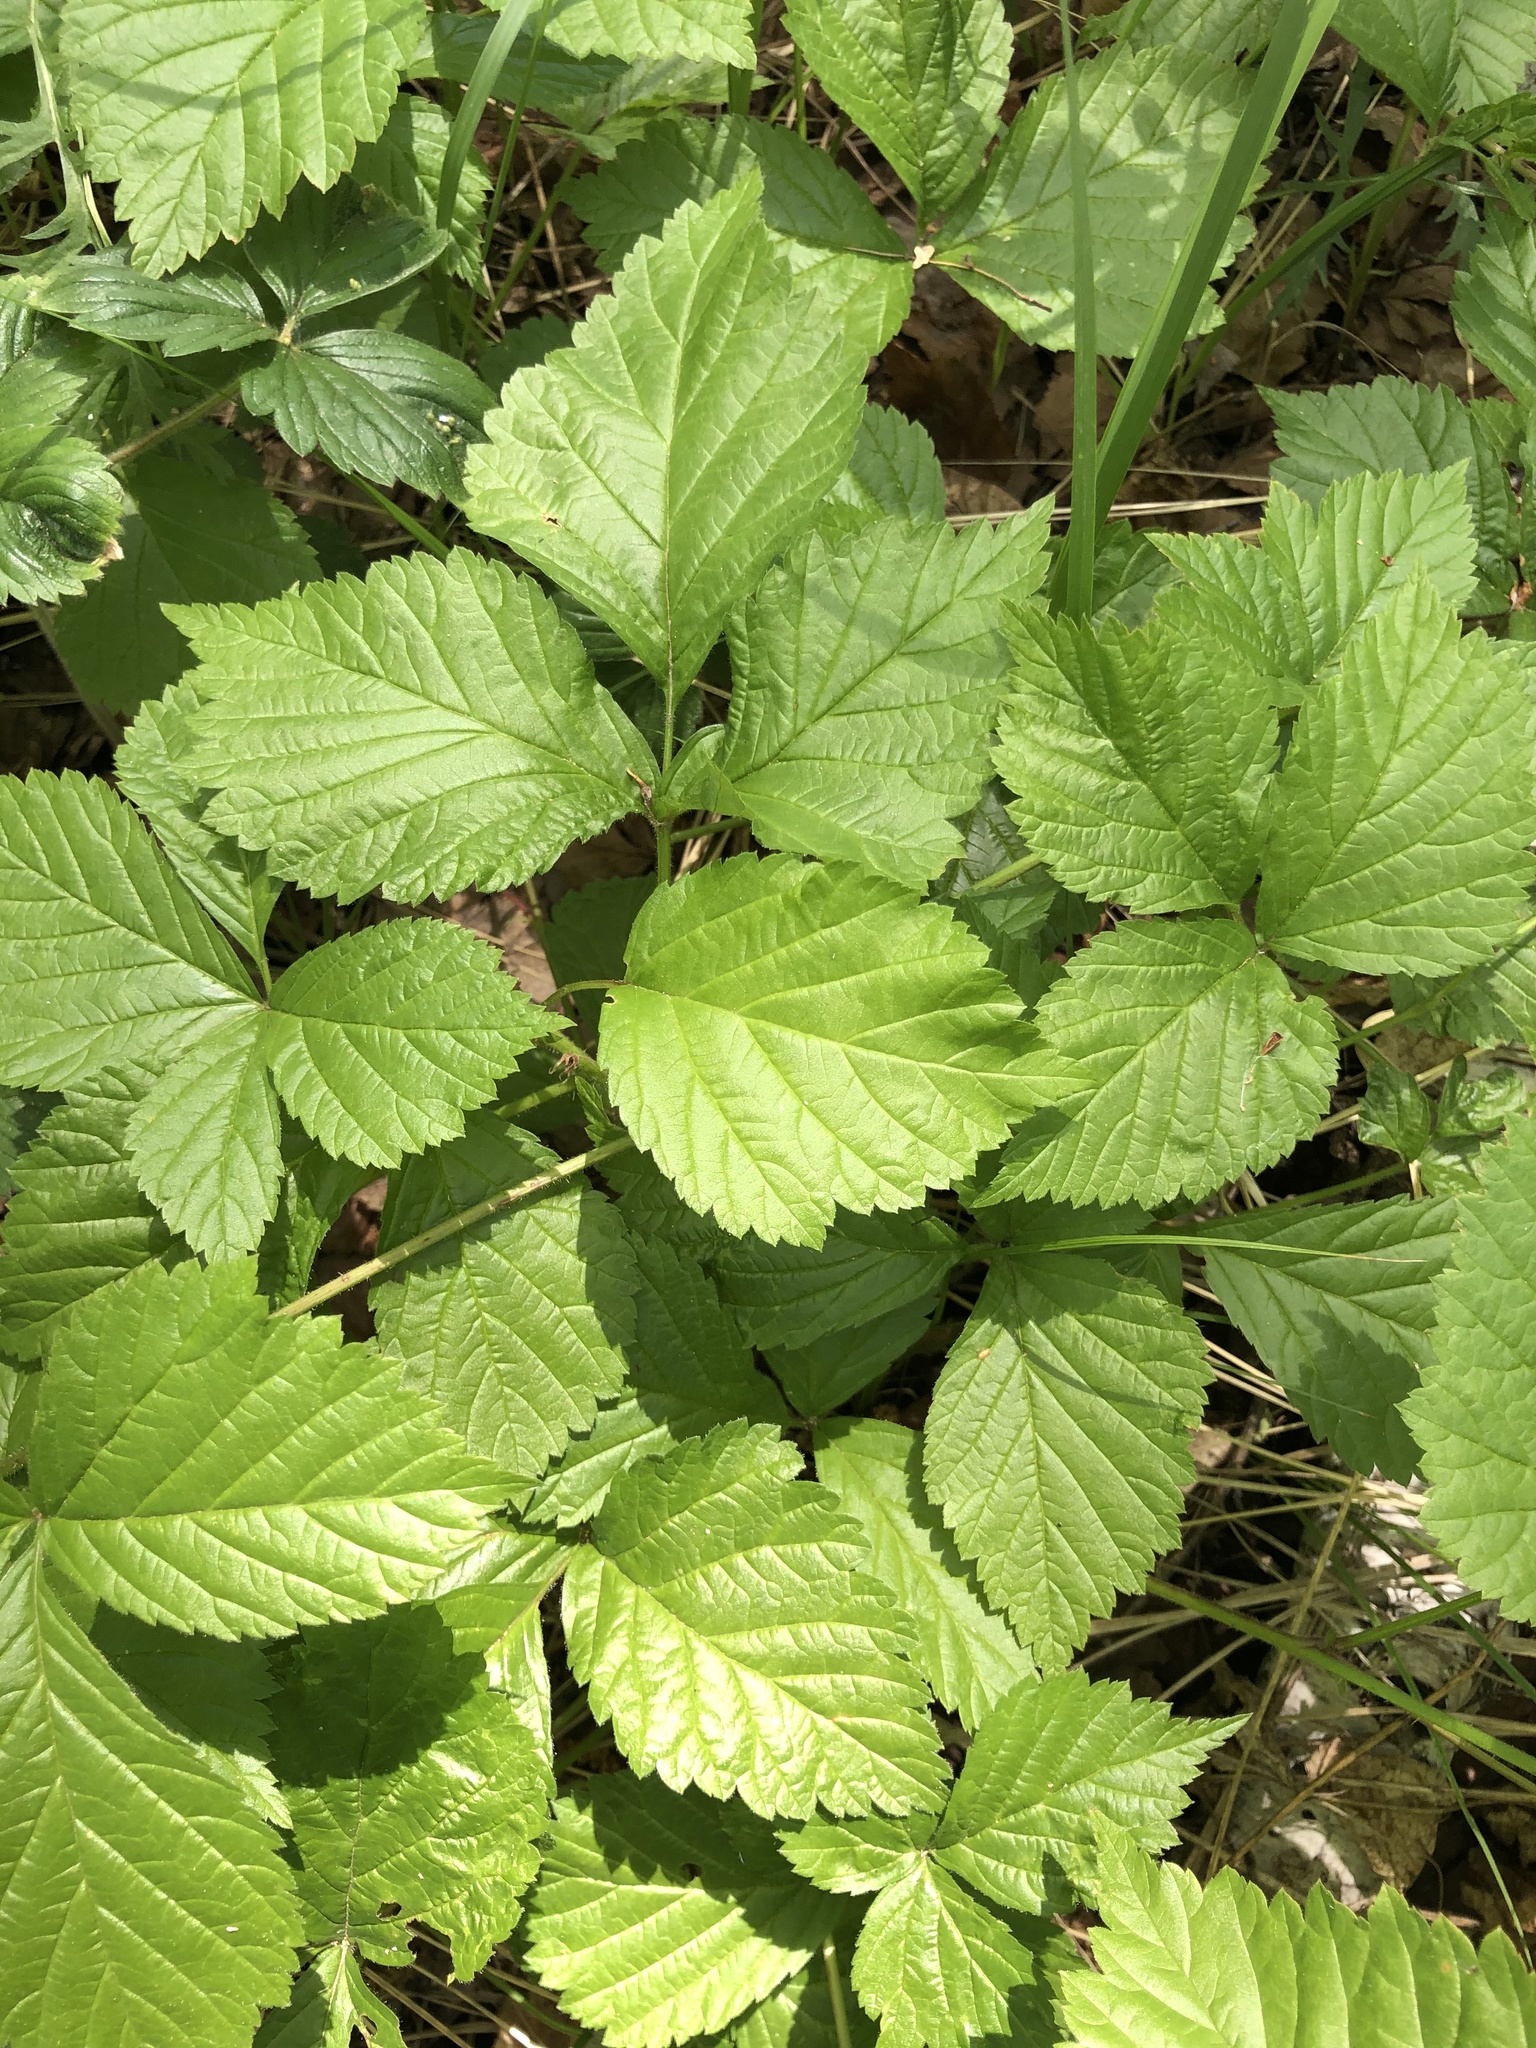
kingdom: Plantae
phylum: Tracheophyta
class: Magnoliopsida
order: Rosales
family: Rosaceae
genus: Rubus
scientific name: Rubus saxatilis
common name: Stone bramble
